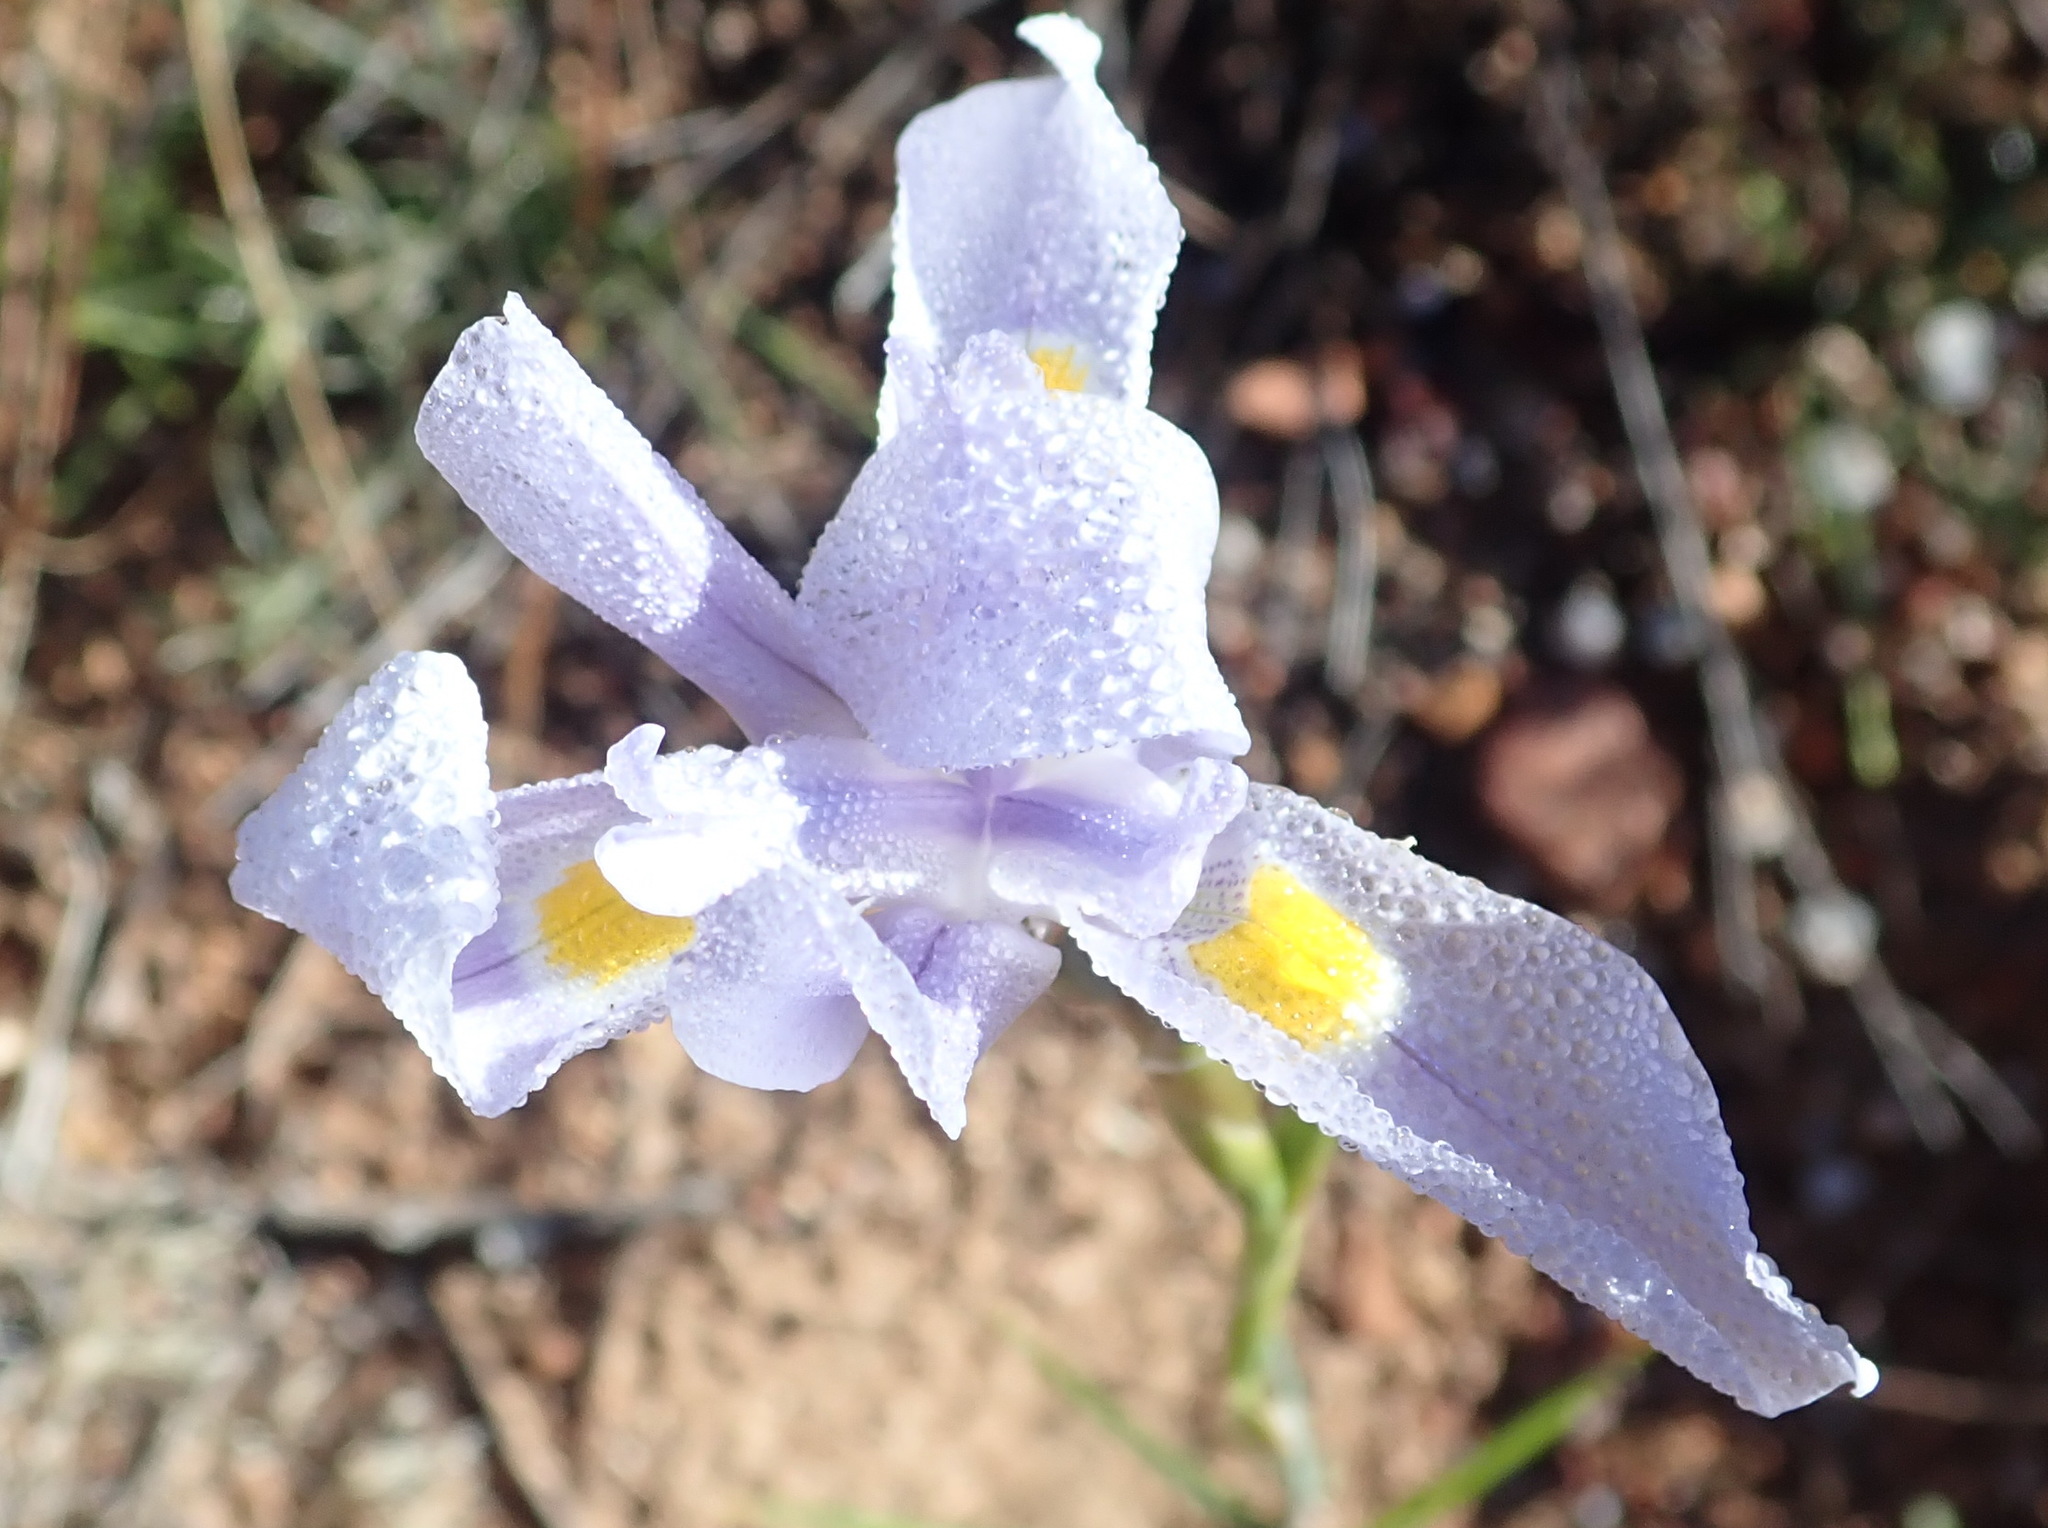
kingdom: Plantae
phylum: Tracheophyta
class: Liliopsida
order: Asparagales
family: Iridaceae
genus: Moraea
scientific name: Moraea polystachya
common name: Blue-tulip
